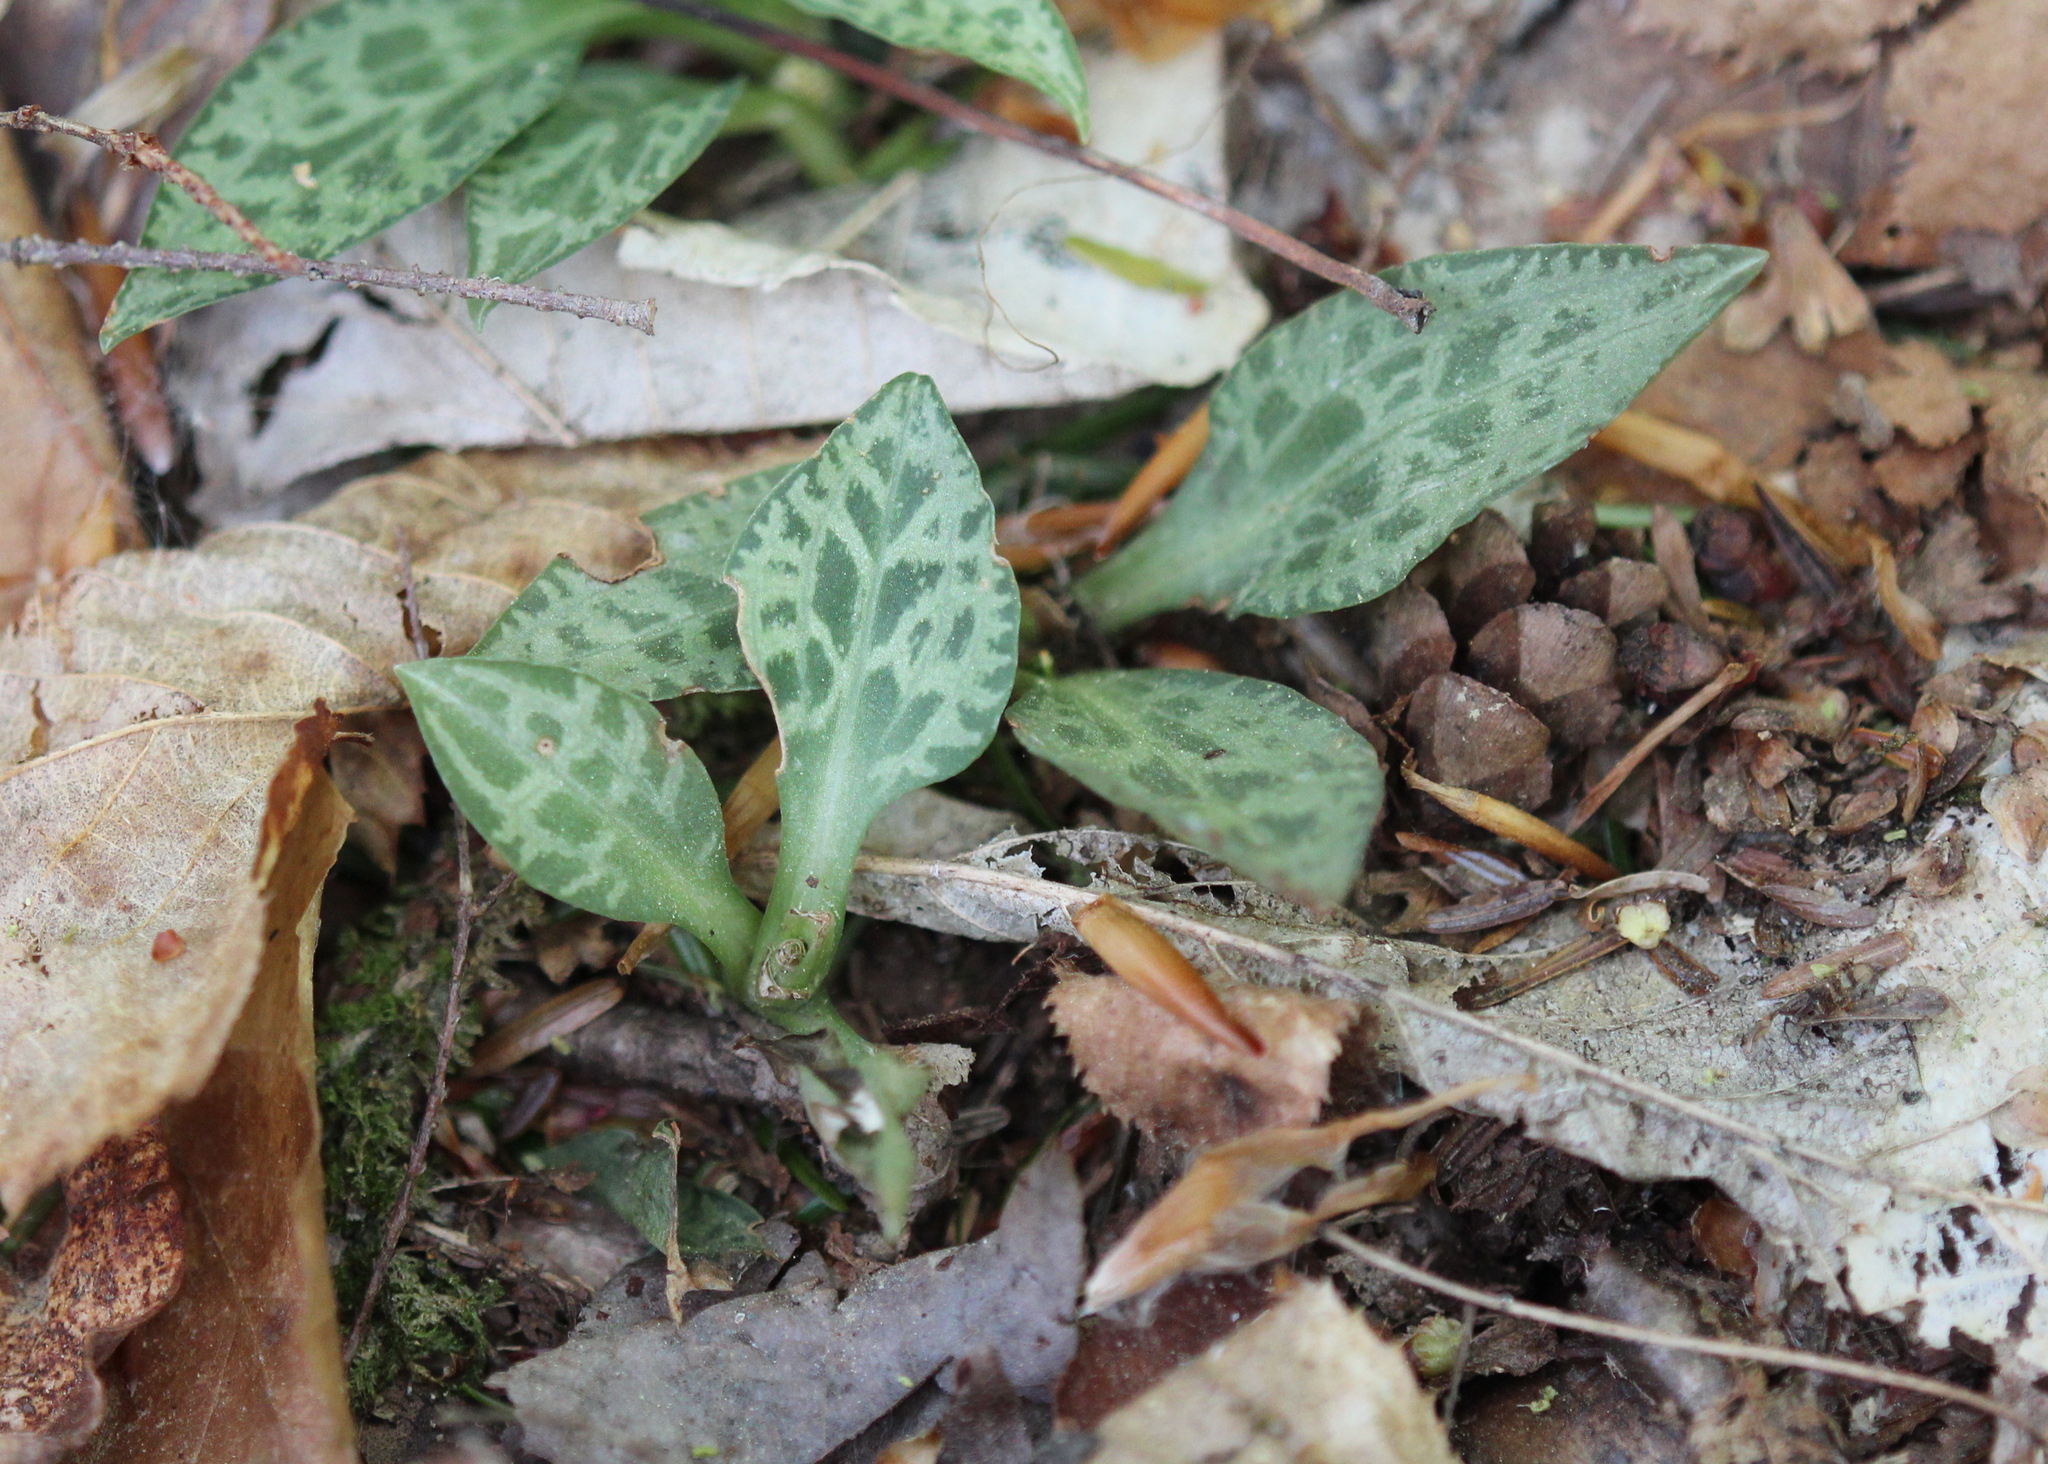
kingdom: Plantae
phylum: Tracheophyta
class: Liliopsida
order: Asparagales
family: Orchidaceae
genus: Goodyera
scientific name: Goodyera tesselata
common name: Checkered rattlesnake-plantain
